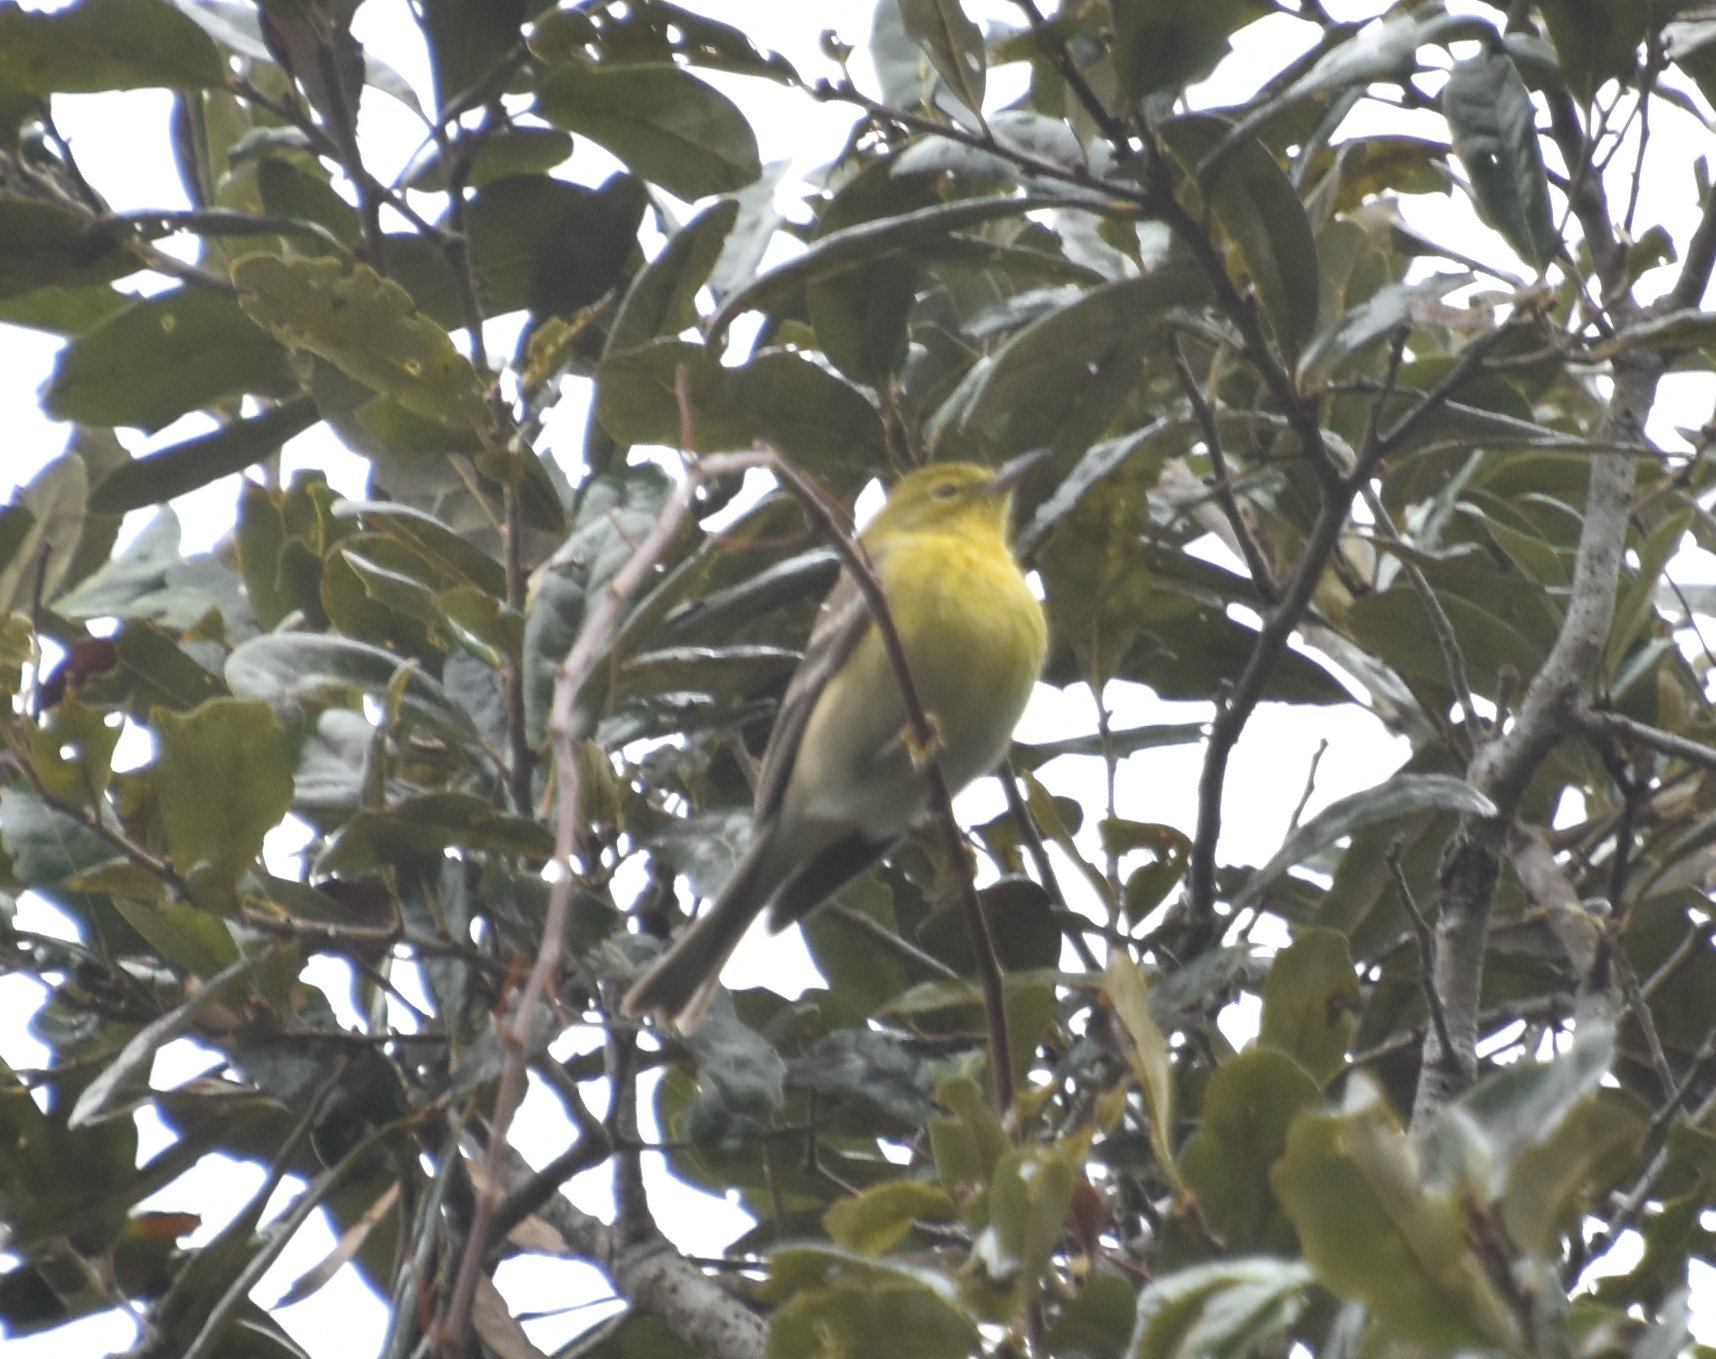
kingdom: Animalia
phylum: Chordata
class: Aves
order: Passeriformes
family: Parulidae
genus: Setophaga
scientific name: Setophaga pinus
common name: Pine warbler
